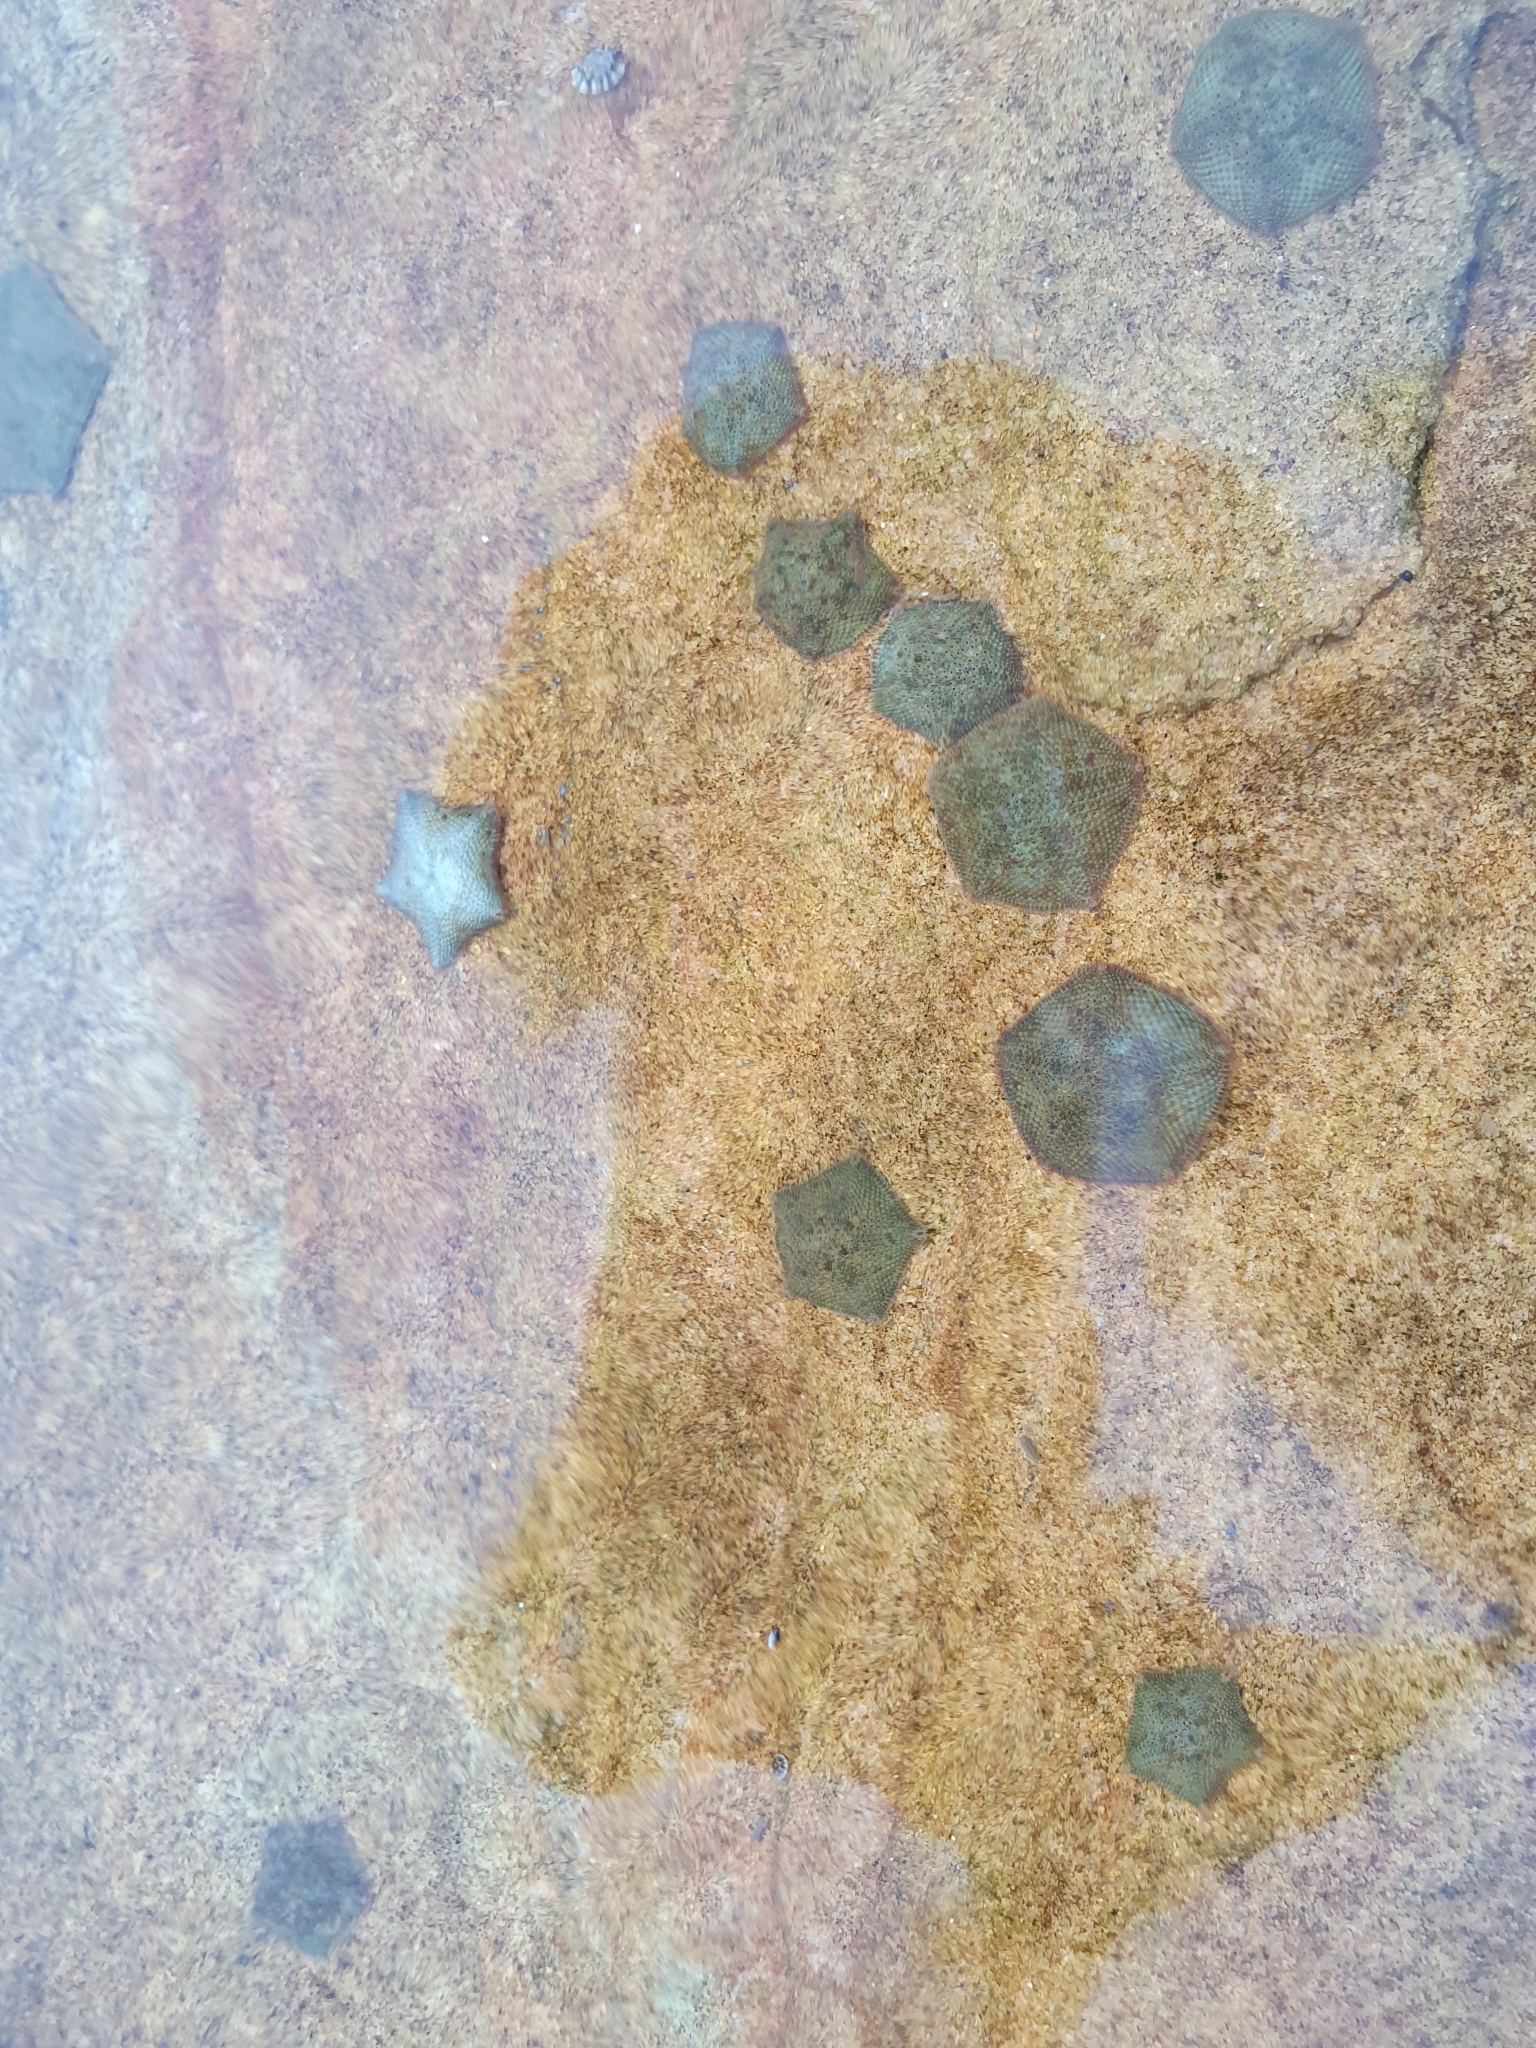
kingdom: Animalia
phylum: Echinodermata
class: Asteroidea
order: Valvatida
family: Asterinidae
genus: Parvulastra
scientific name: Parvulastra exigua
